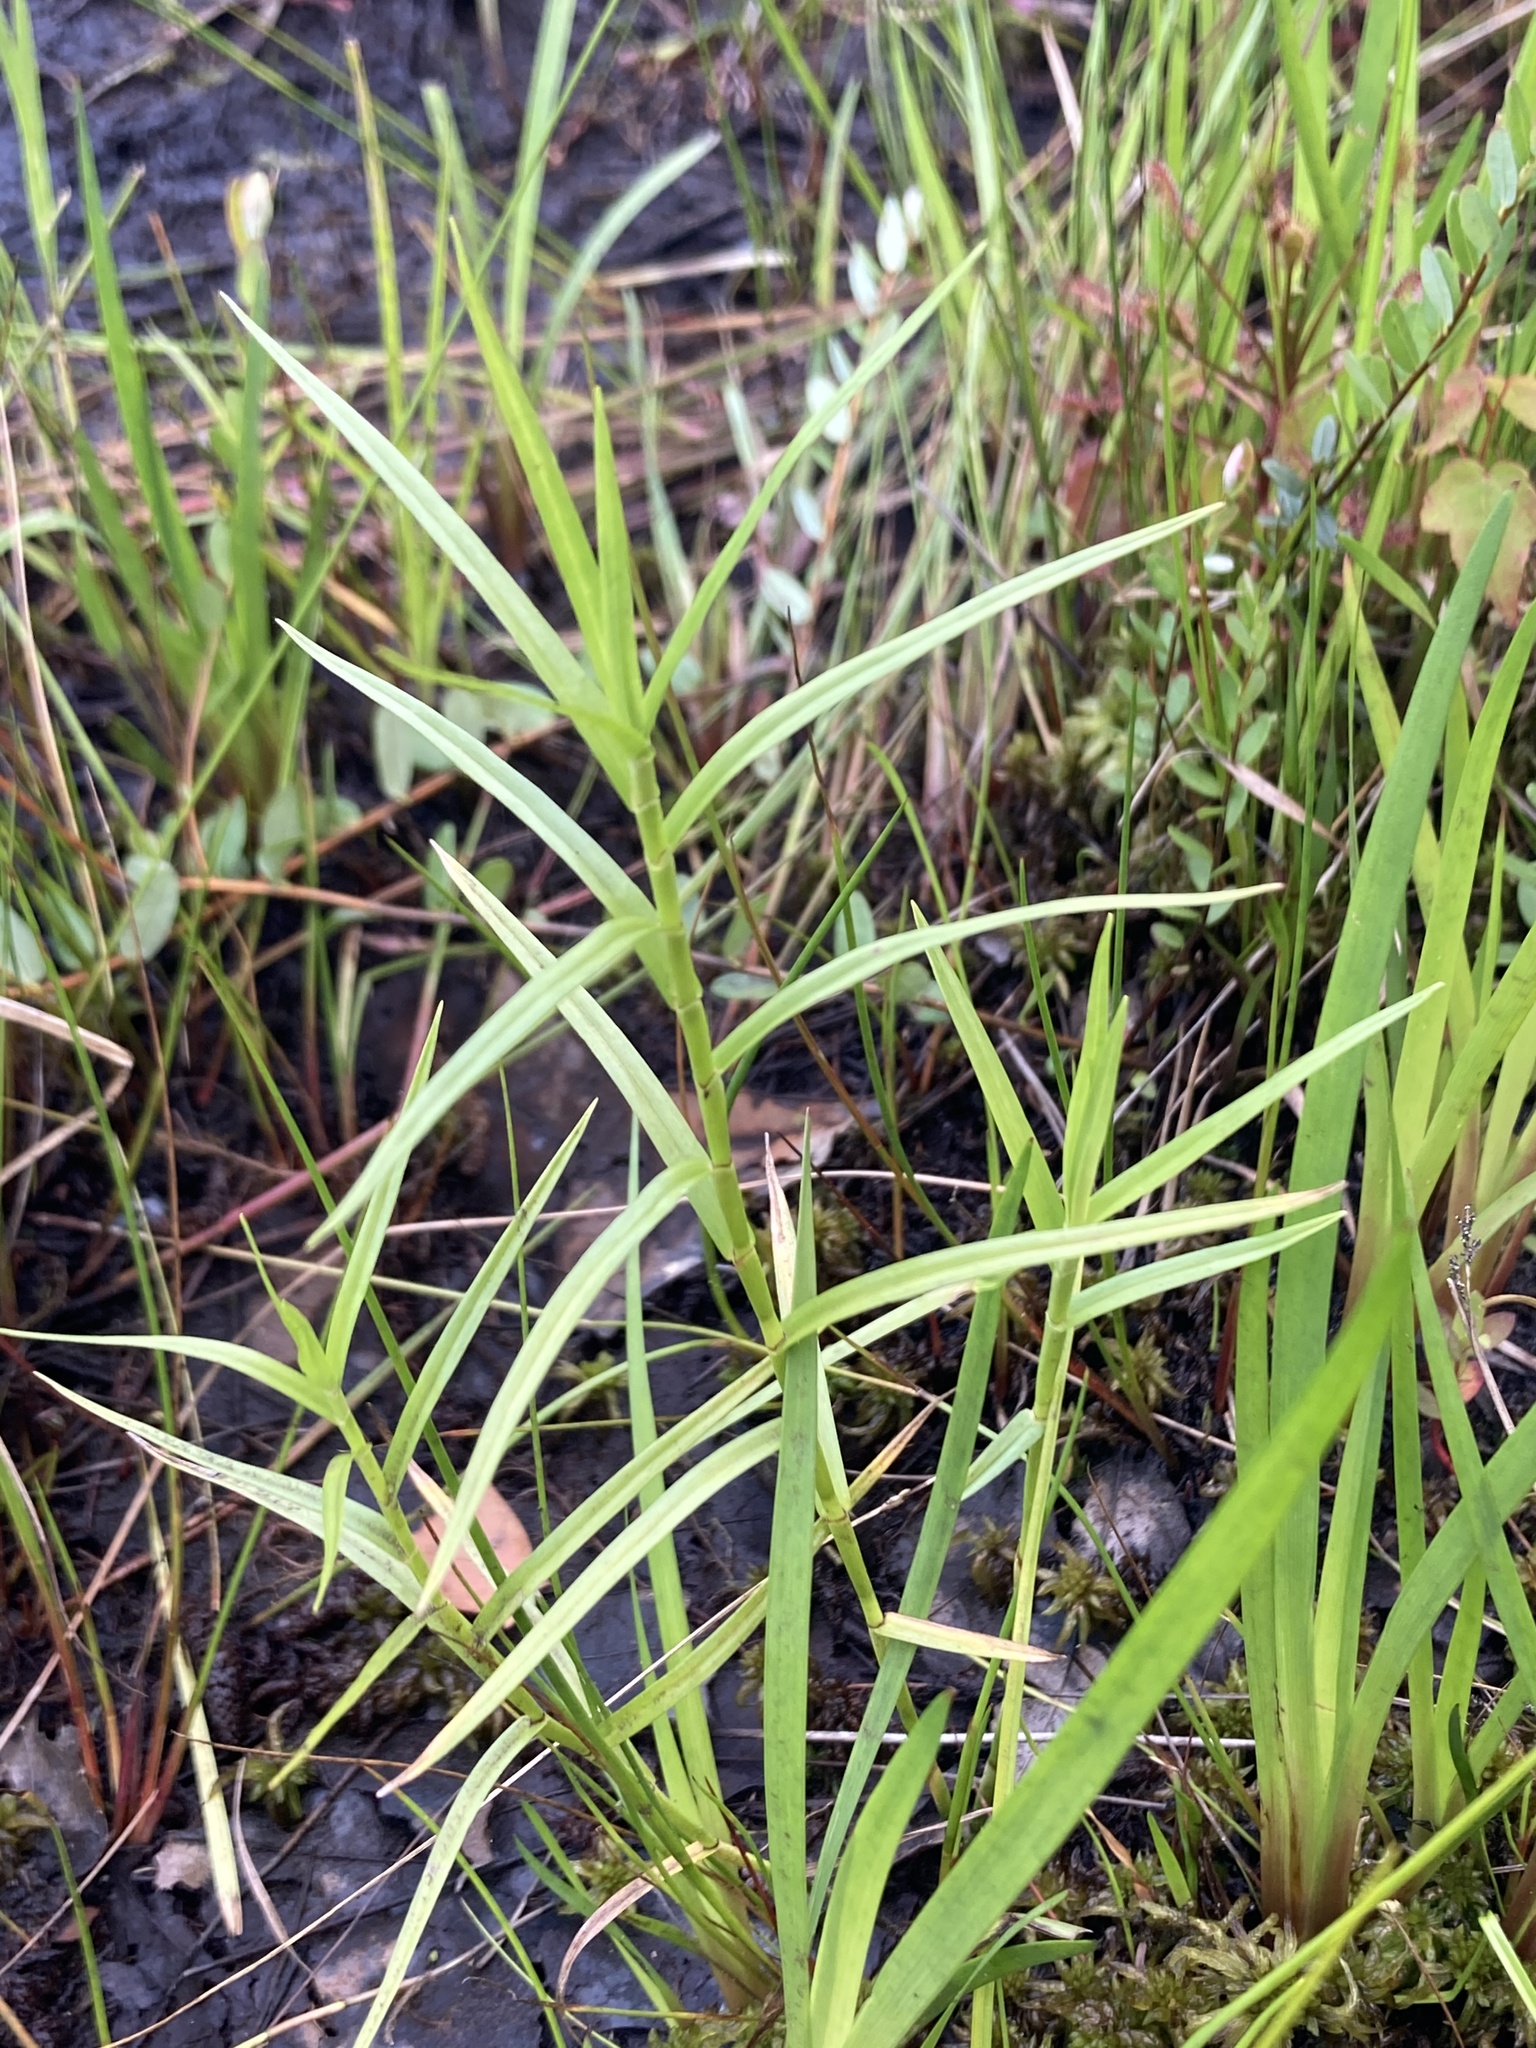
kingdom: Plantae
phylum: Tracheophyta
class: Liliopsida
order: Poales
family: Cyperaceae
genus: Dulichium
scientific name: Dulichium arundinaceum
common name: Three-way sedge
